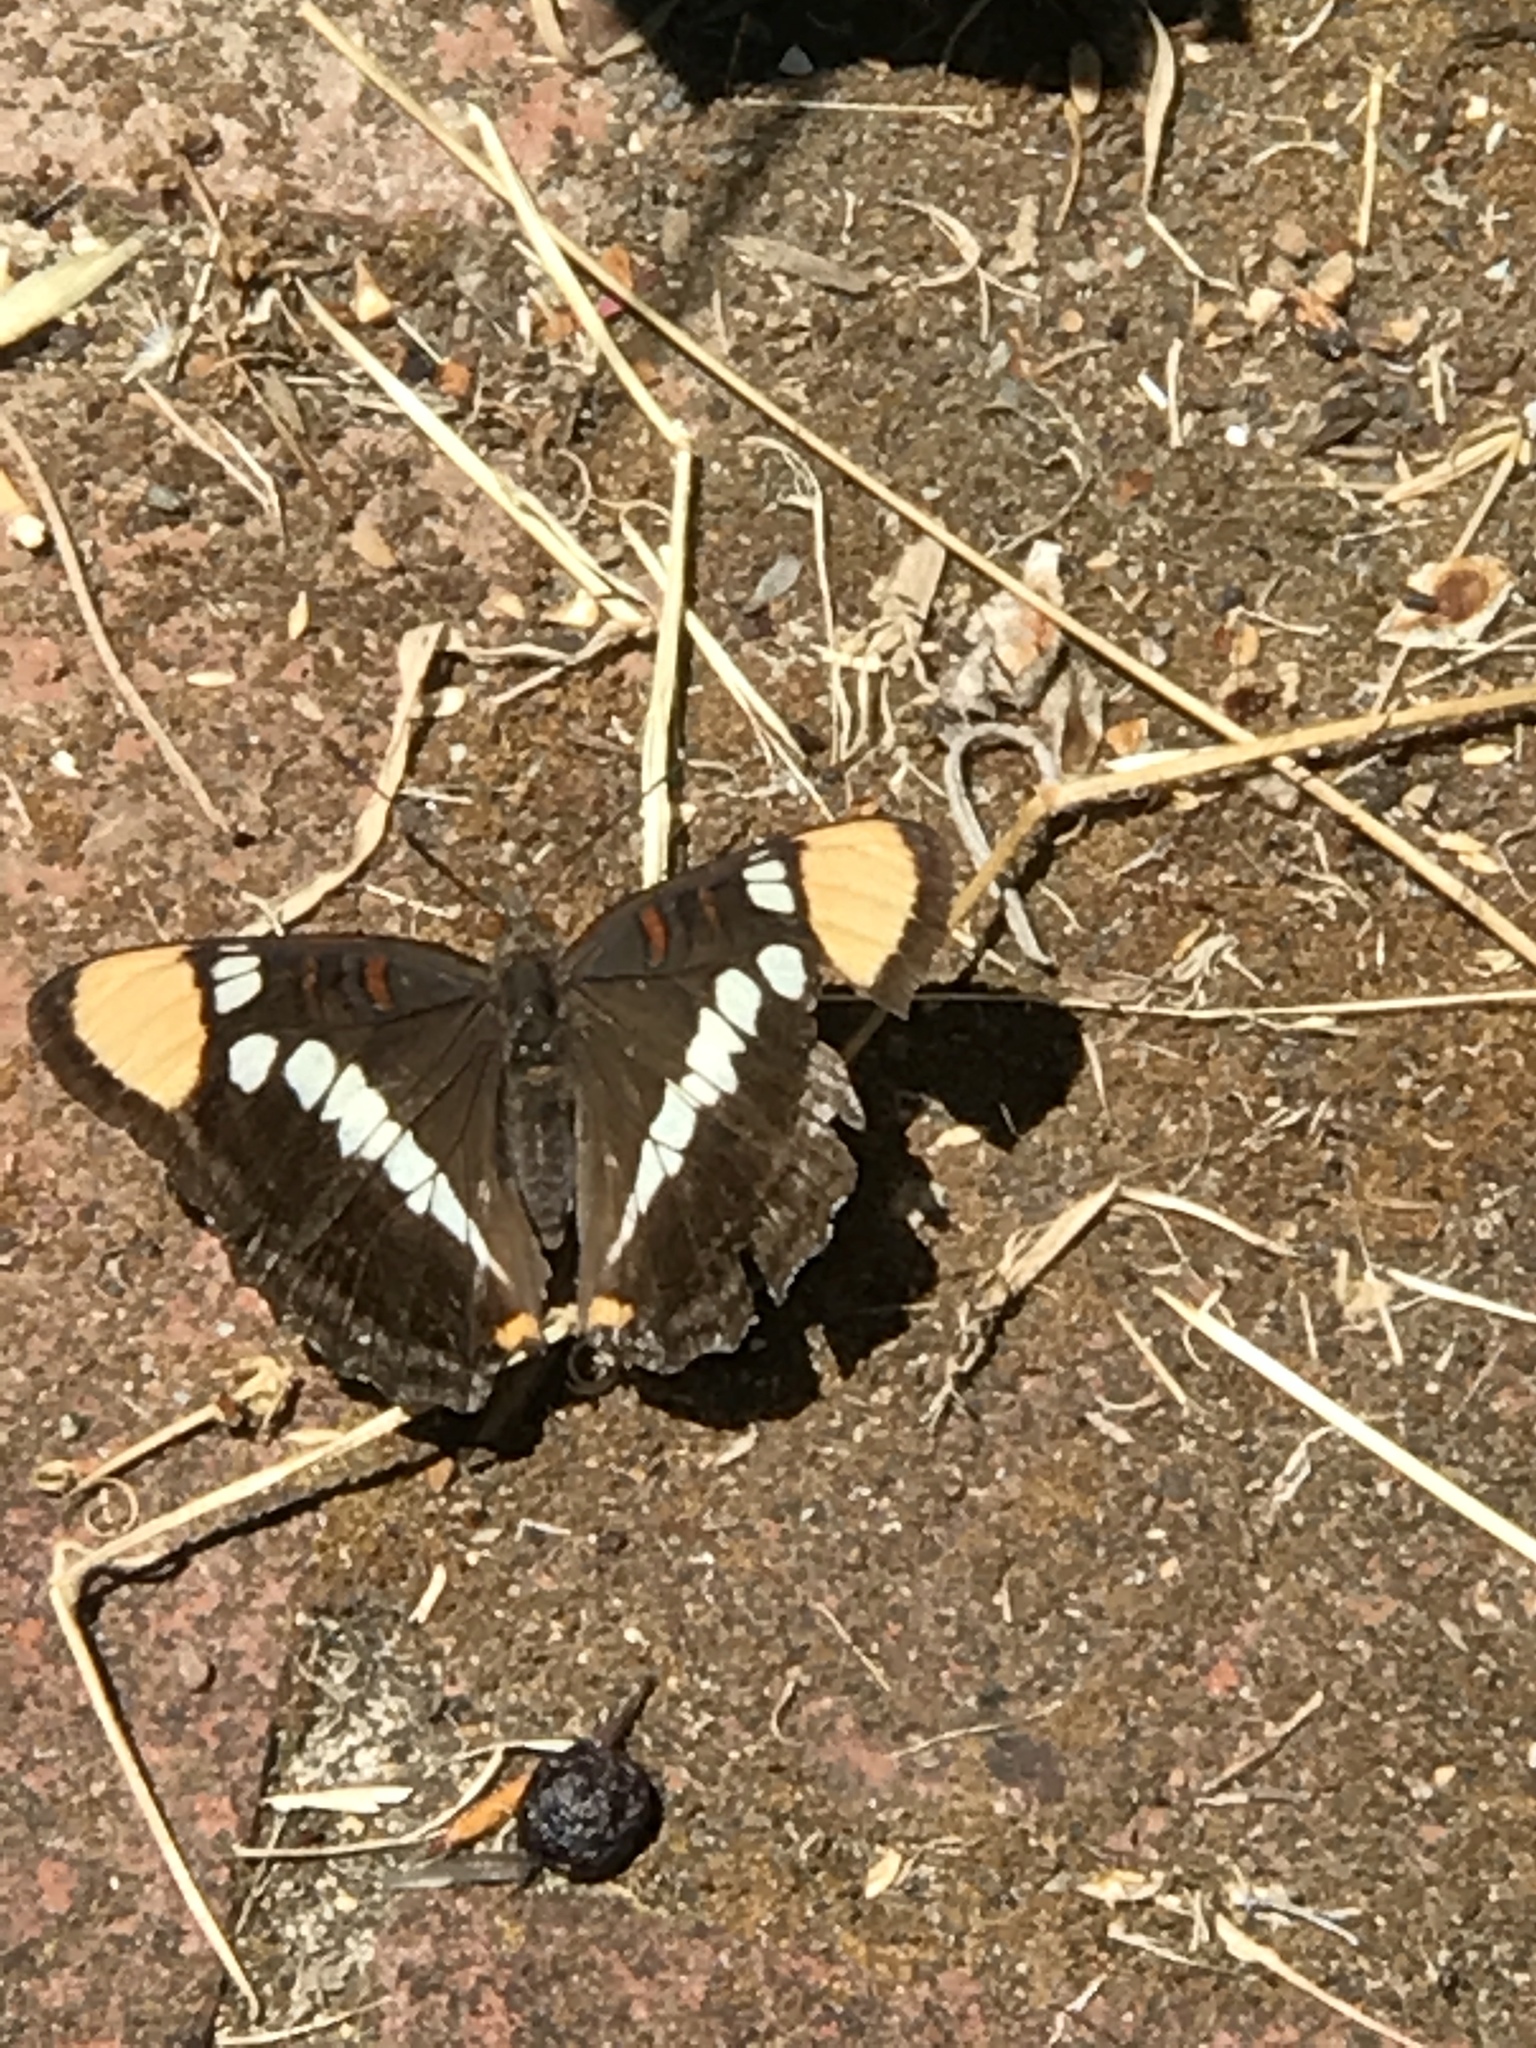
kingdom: Animalia
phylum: Arthropoda
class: Insecta
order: Lepidoptera
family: Nymphalidae
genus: Limenitis
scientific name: Limenitis bredowii
